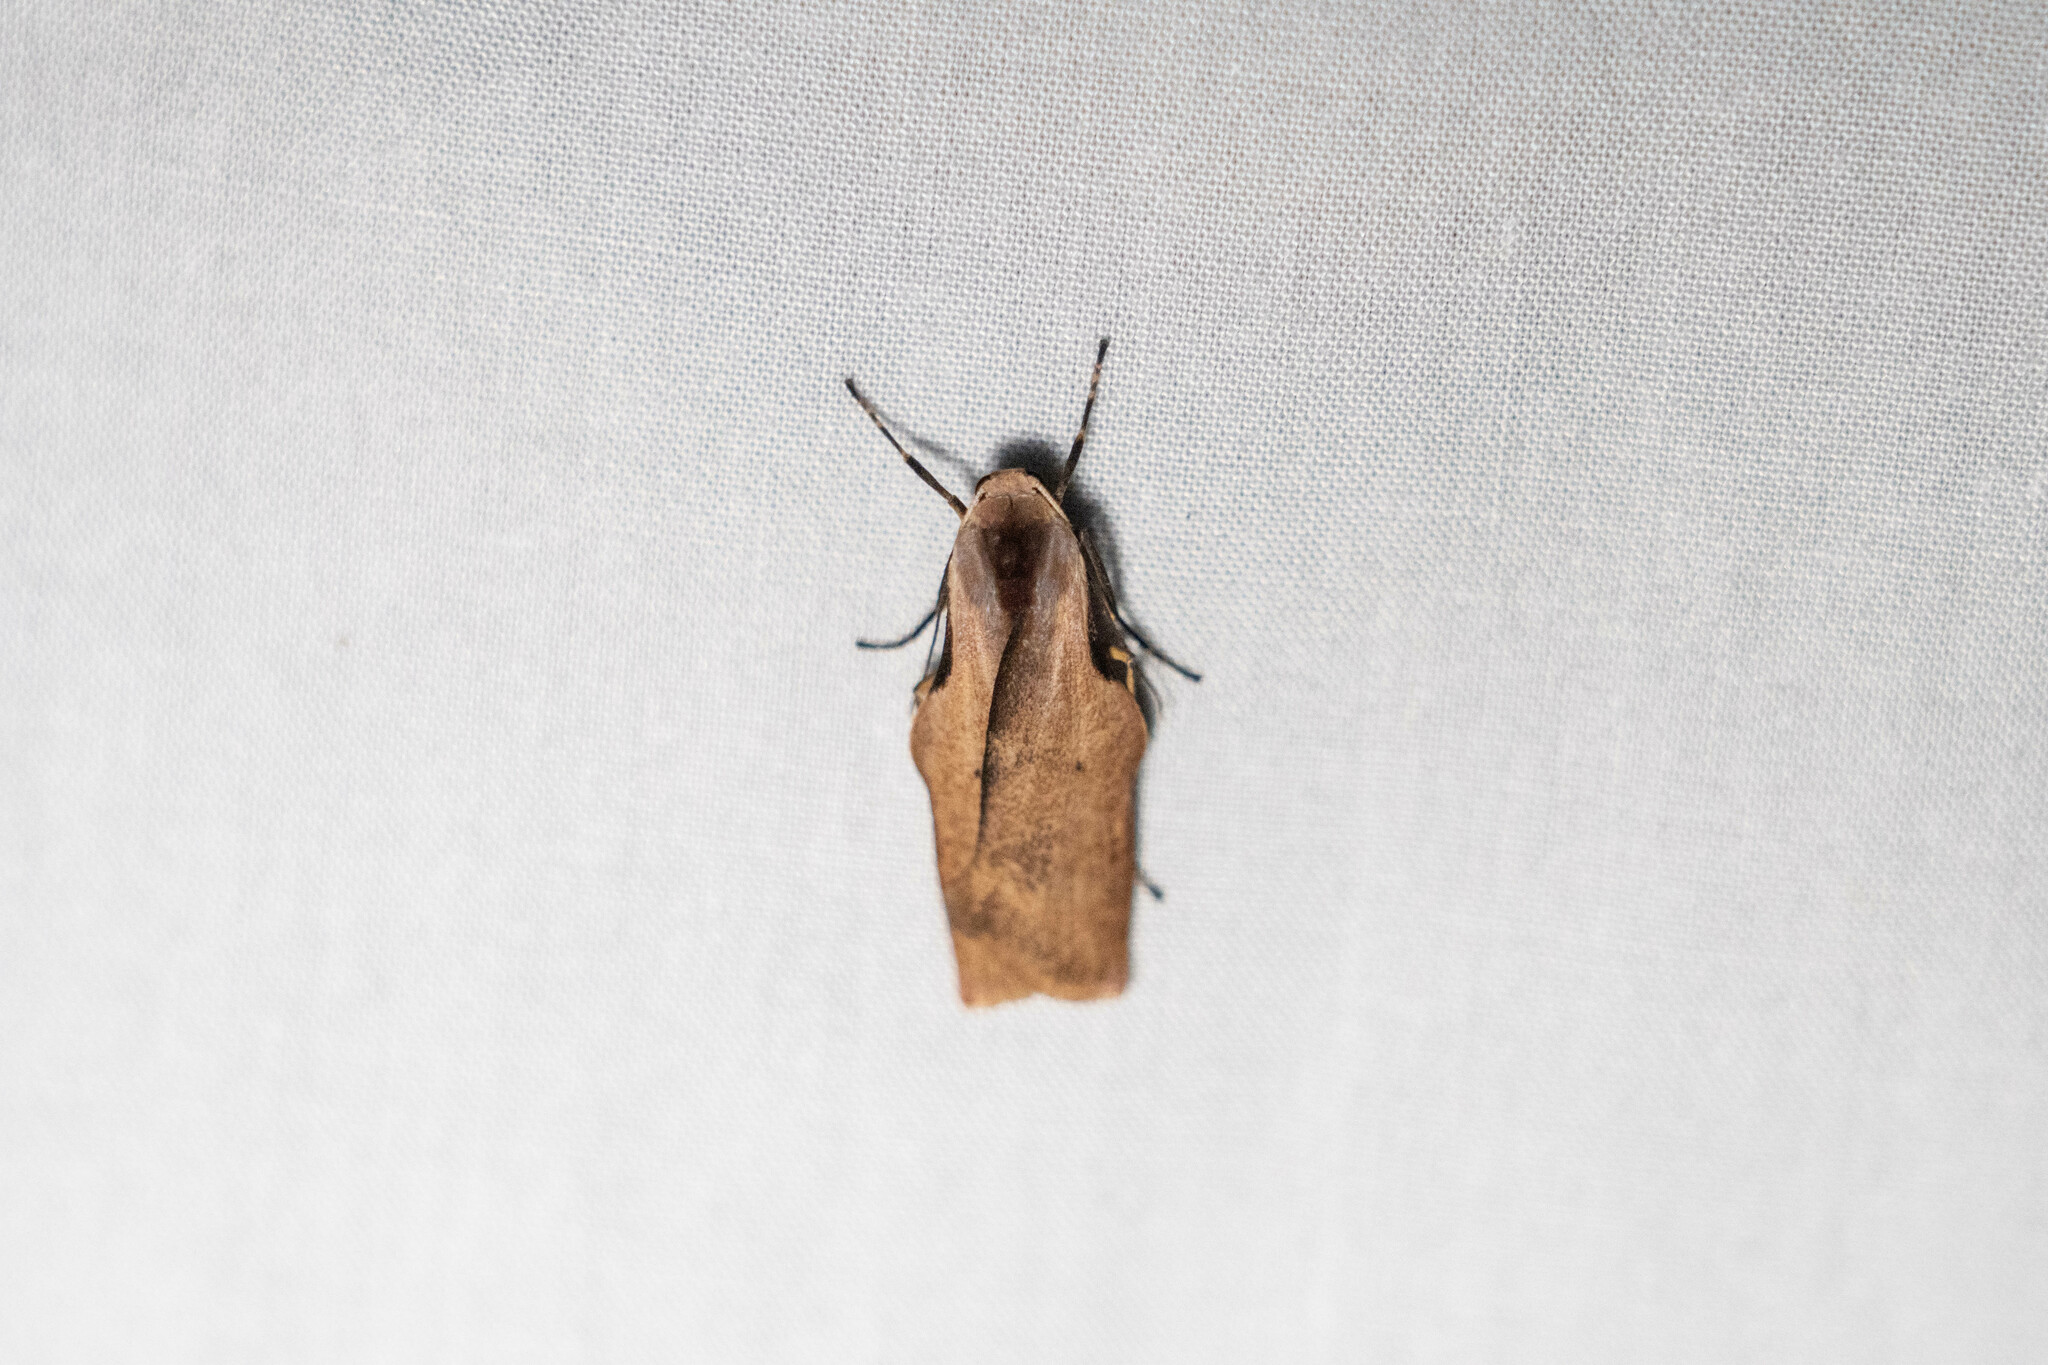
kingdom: Animalia
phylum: Arthropoda
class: Insecta
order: Lepidoptera
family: Erebidae
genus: Teulisna
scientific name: Teulisna tumida
